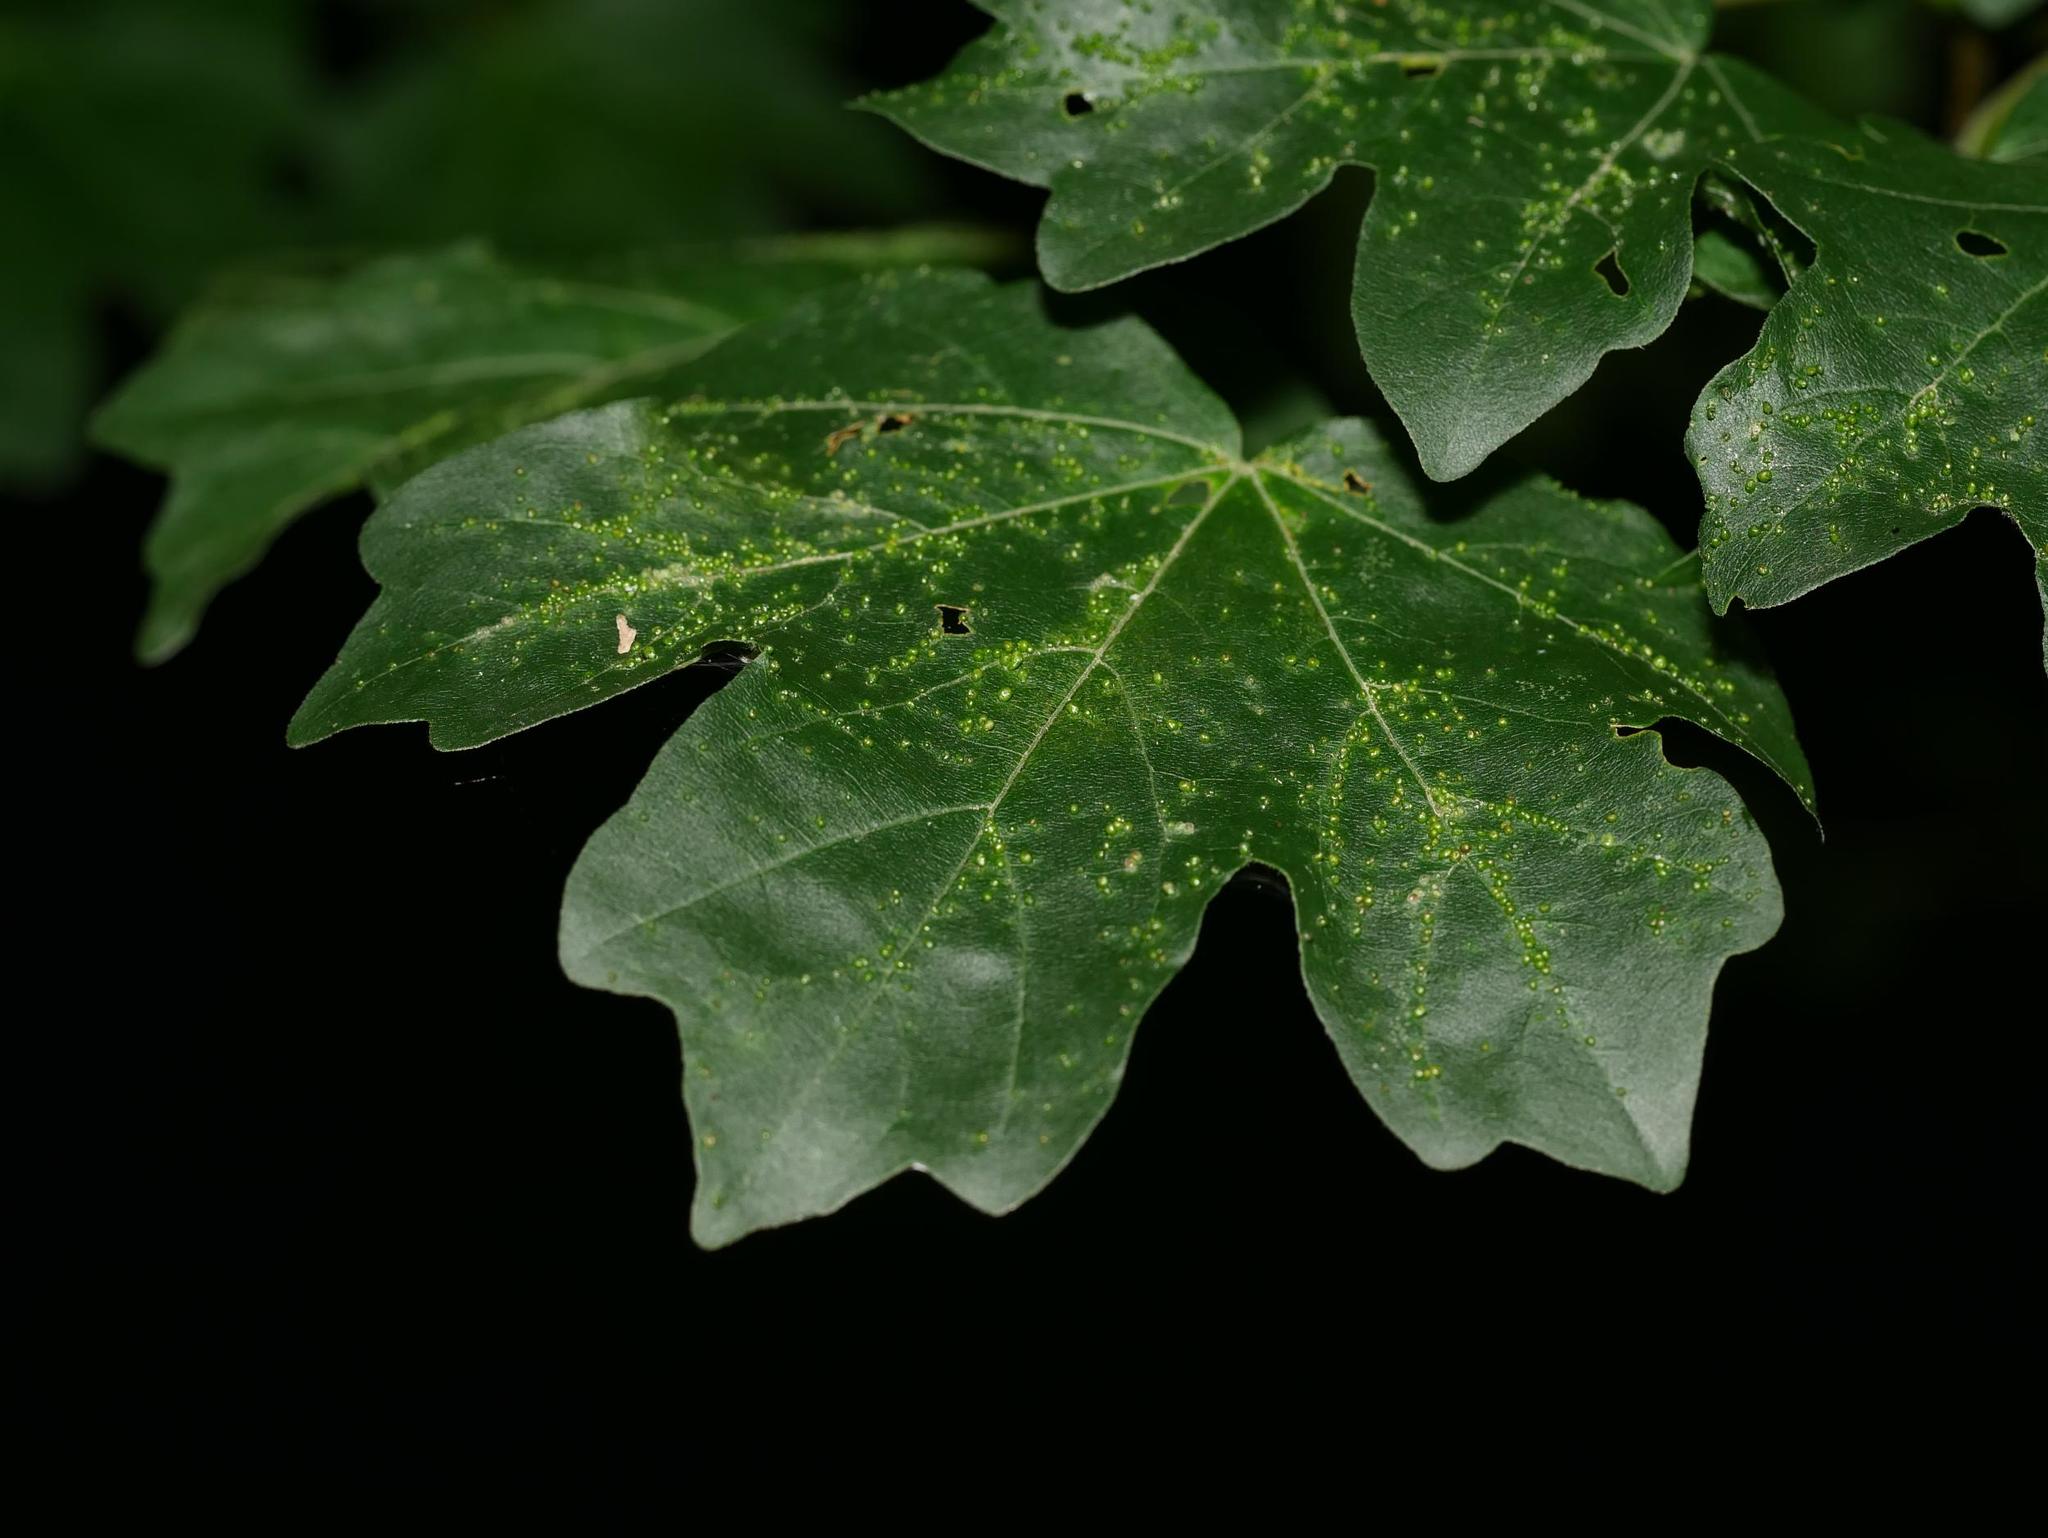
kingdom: Plantae
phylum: Tracheophyta
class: Magnoliopsida
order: Sapindales
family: Sapindaceae
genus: Acer
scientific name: Acer campestre
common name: Field maple
